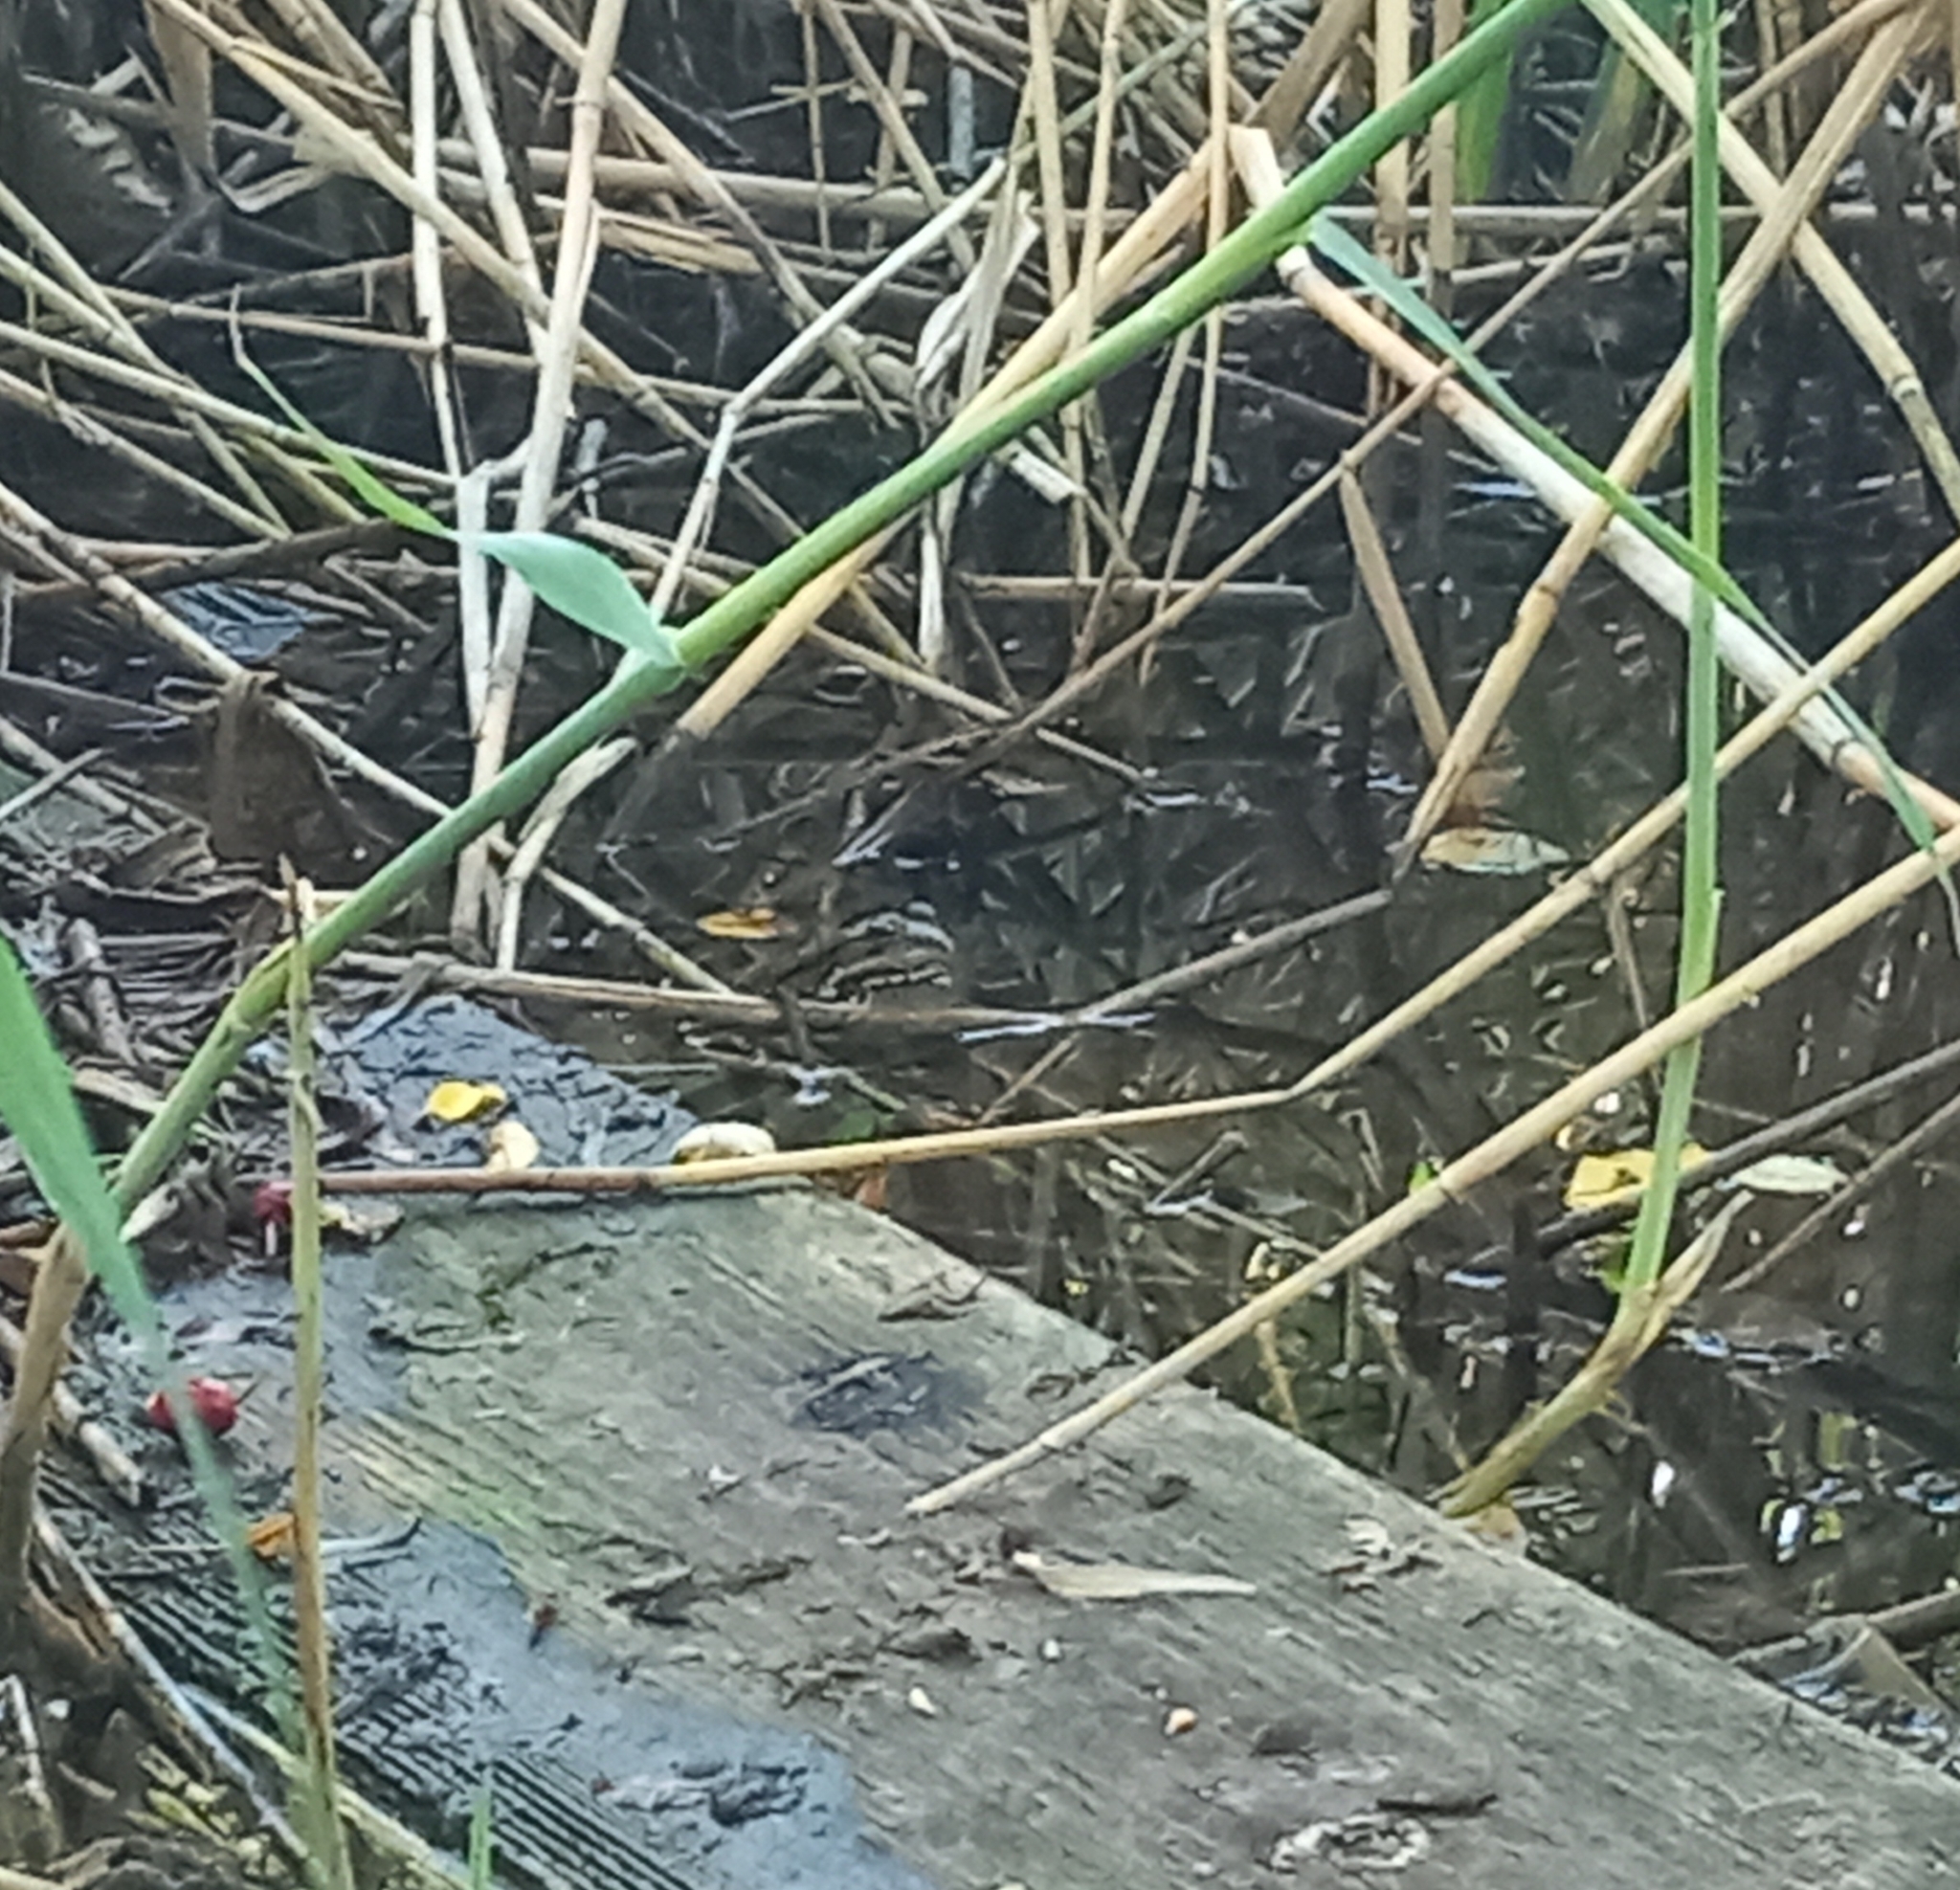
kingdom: Animalia
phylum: Chordata
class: Amphibia
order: Anura
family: Ranidae
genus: Pelophylax
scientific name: Pelophylax
